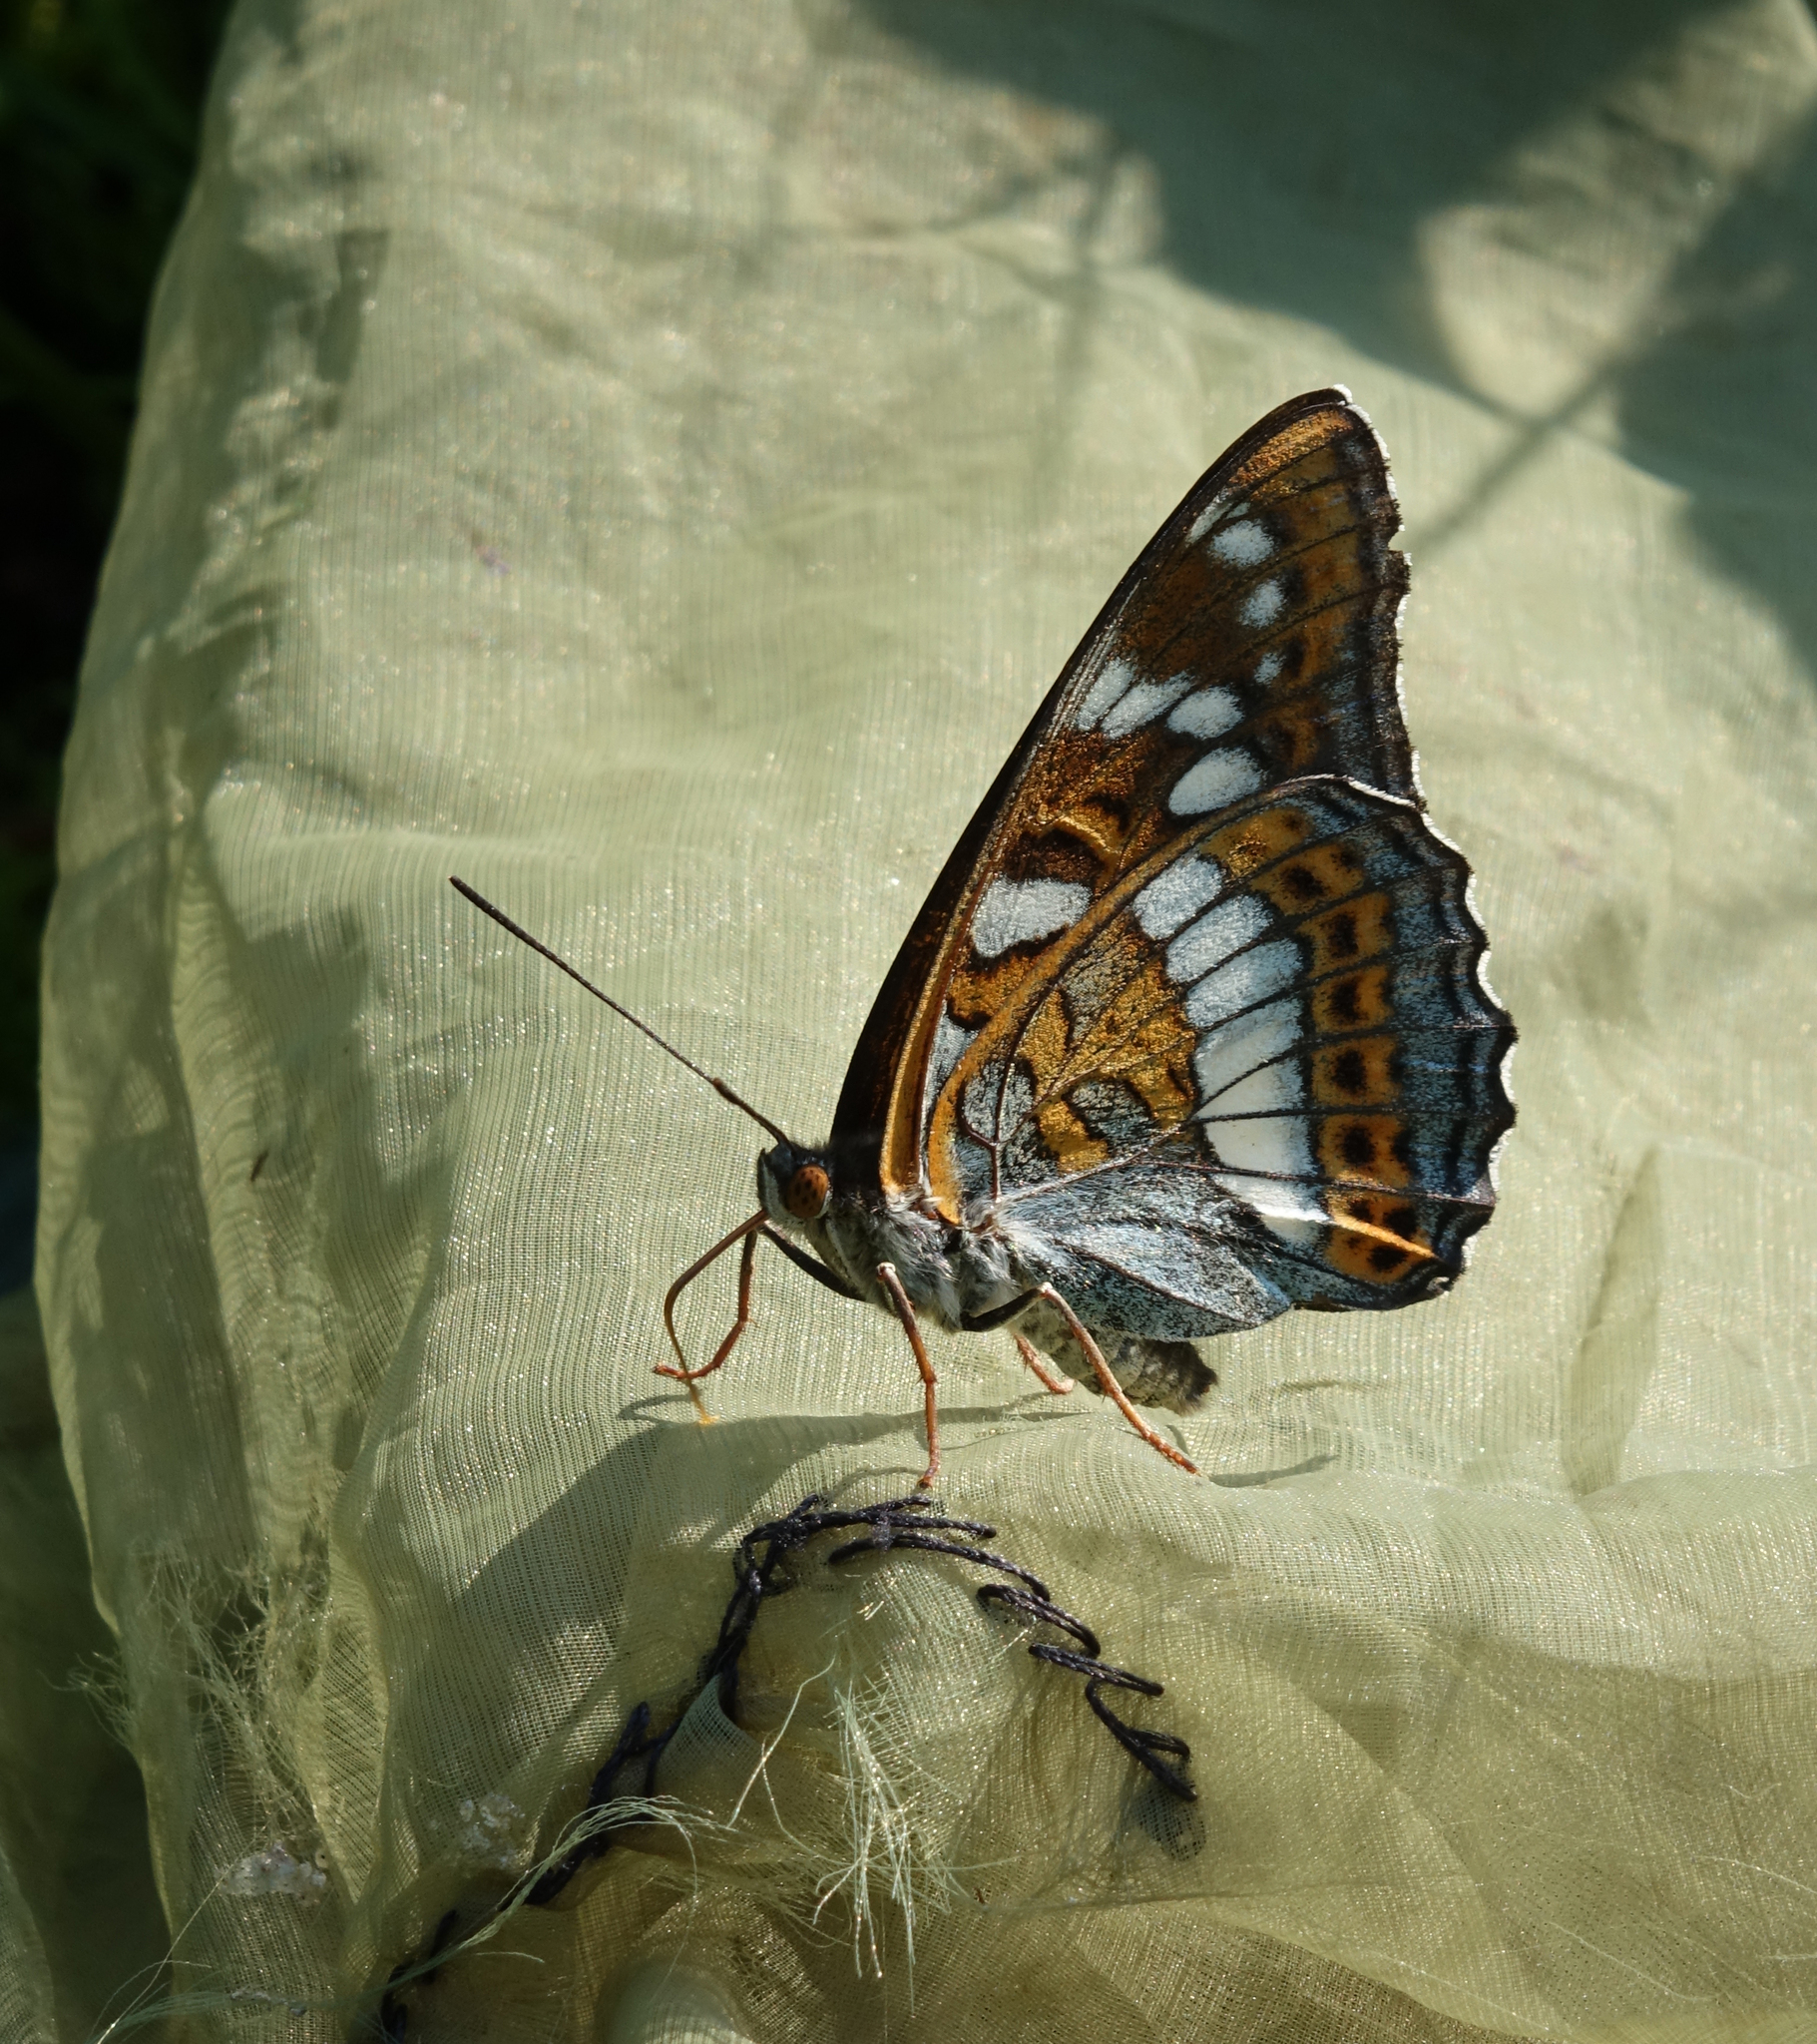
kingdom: Animalia
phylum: Arthropoda
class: Insecta
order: Lepidoptera
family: Nymphalidae
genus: Limenitis
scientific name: Limenitis populi
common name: Poplar admiral
